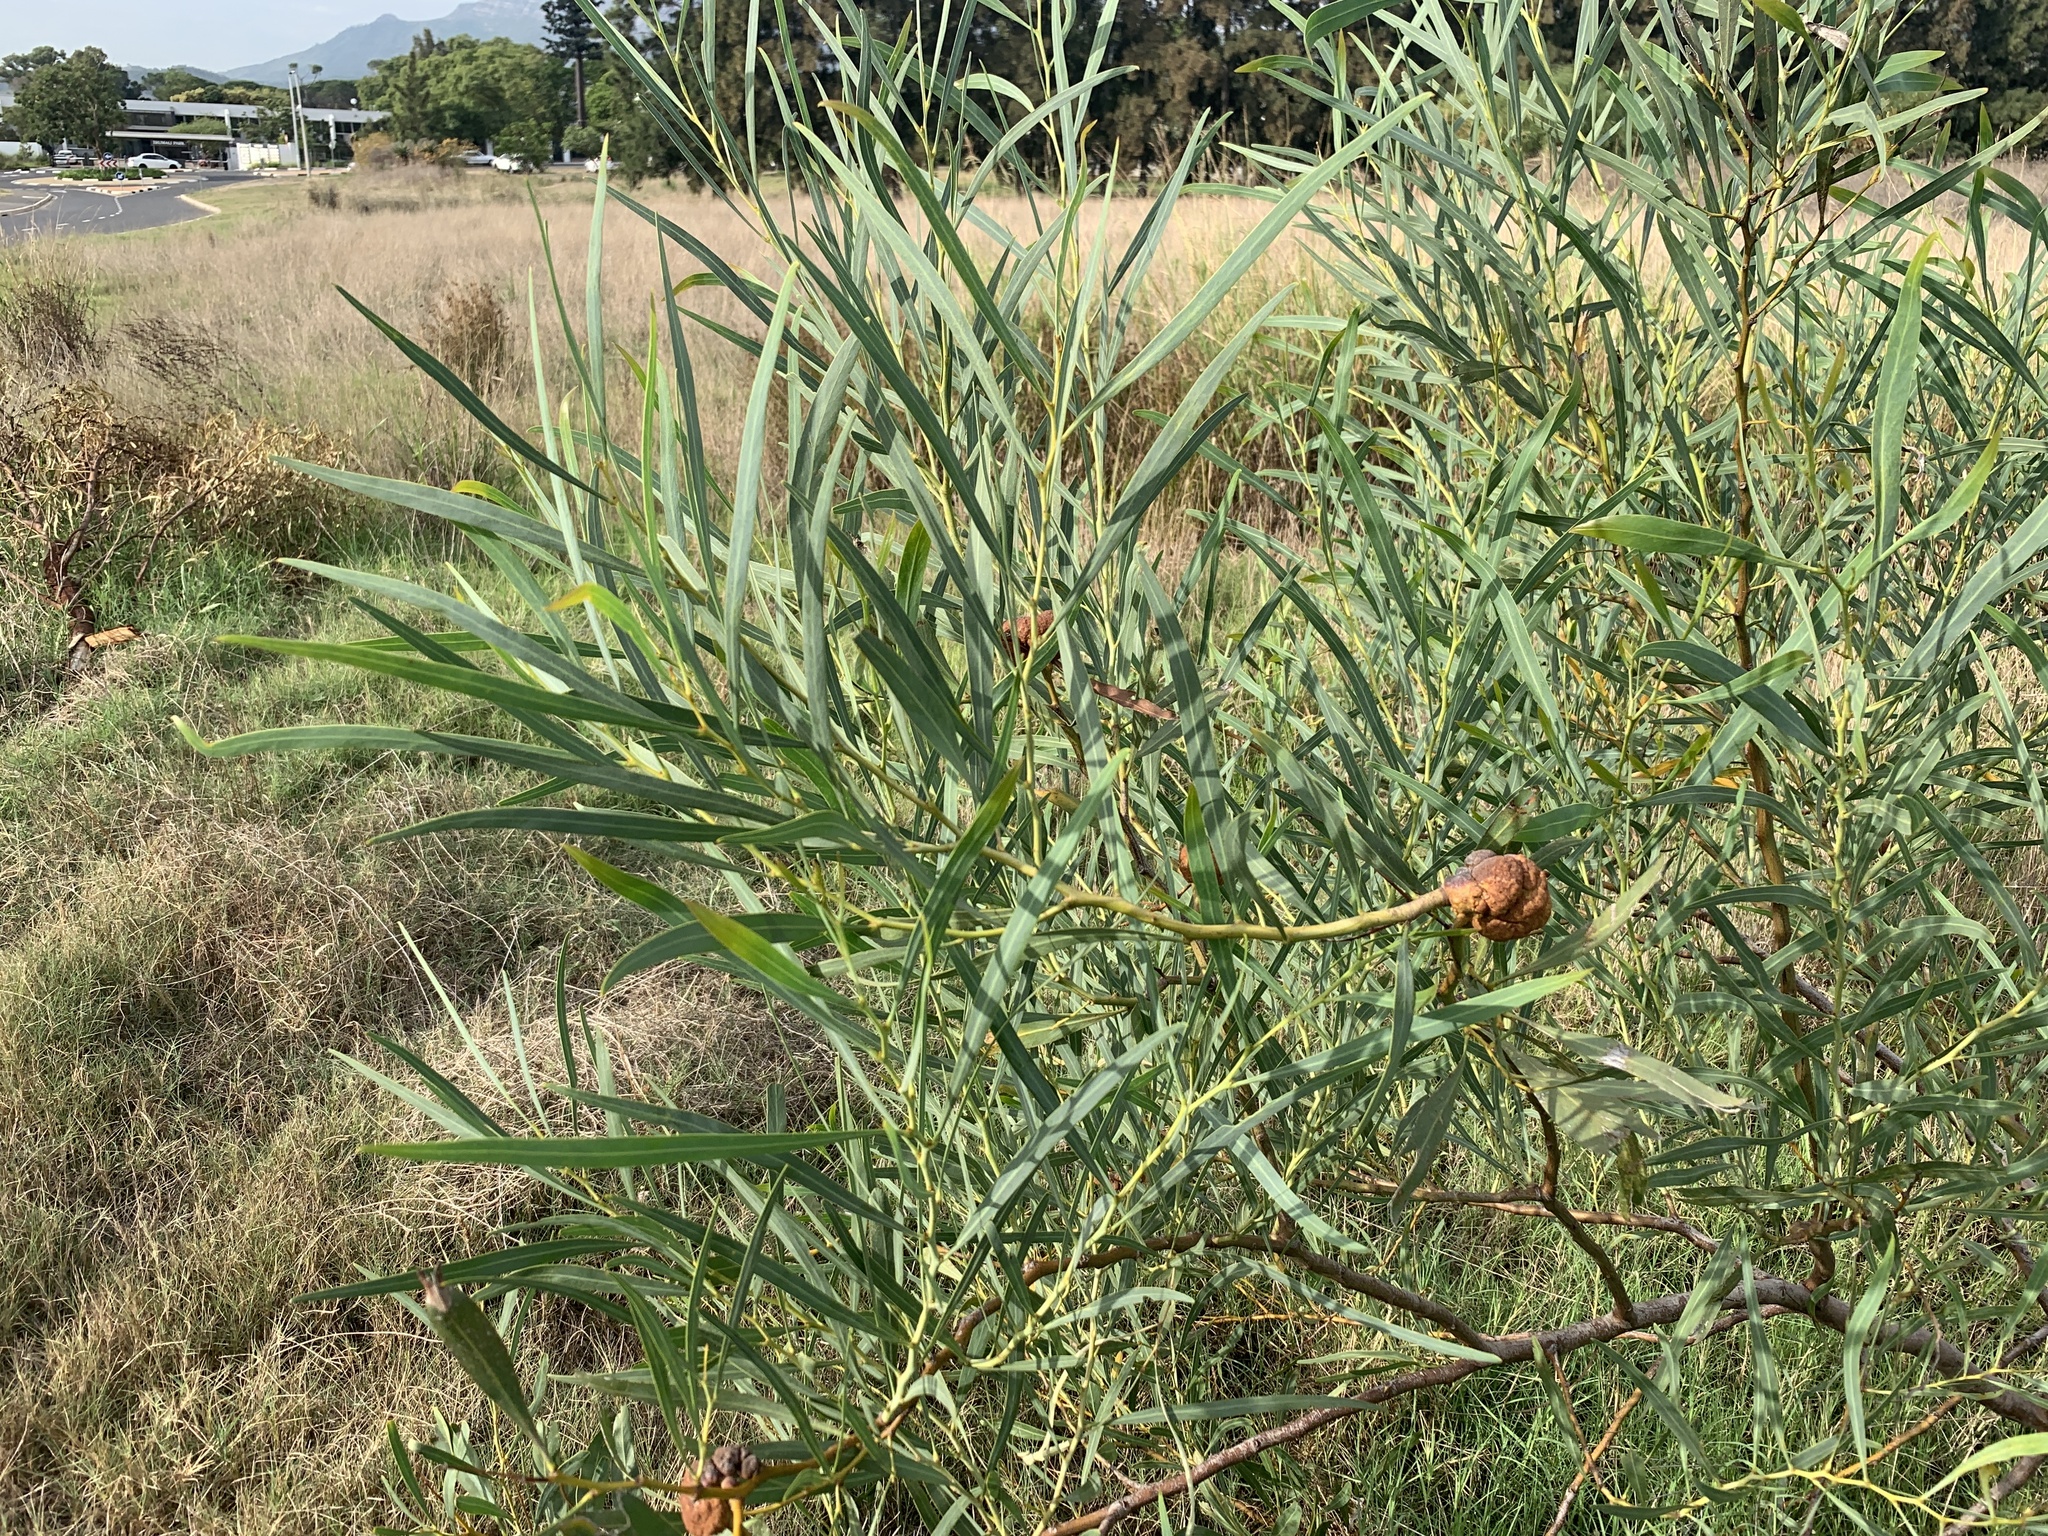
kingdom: Fungi
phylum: Basidiomycota
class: Pucciniomycetes
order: Pucciniales
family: Uromycladiaceae
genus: Uromycladium
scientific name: Uromycladium morrisii
